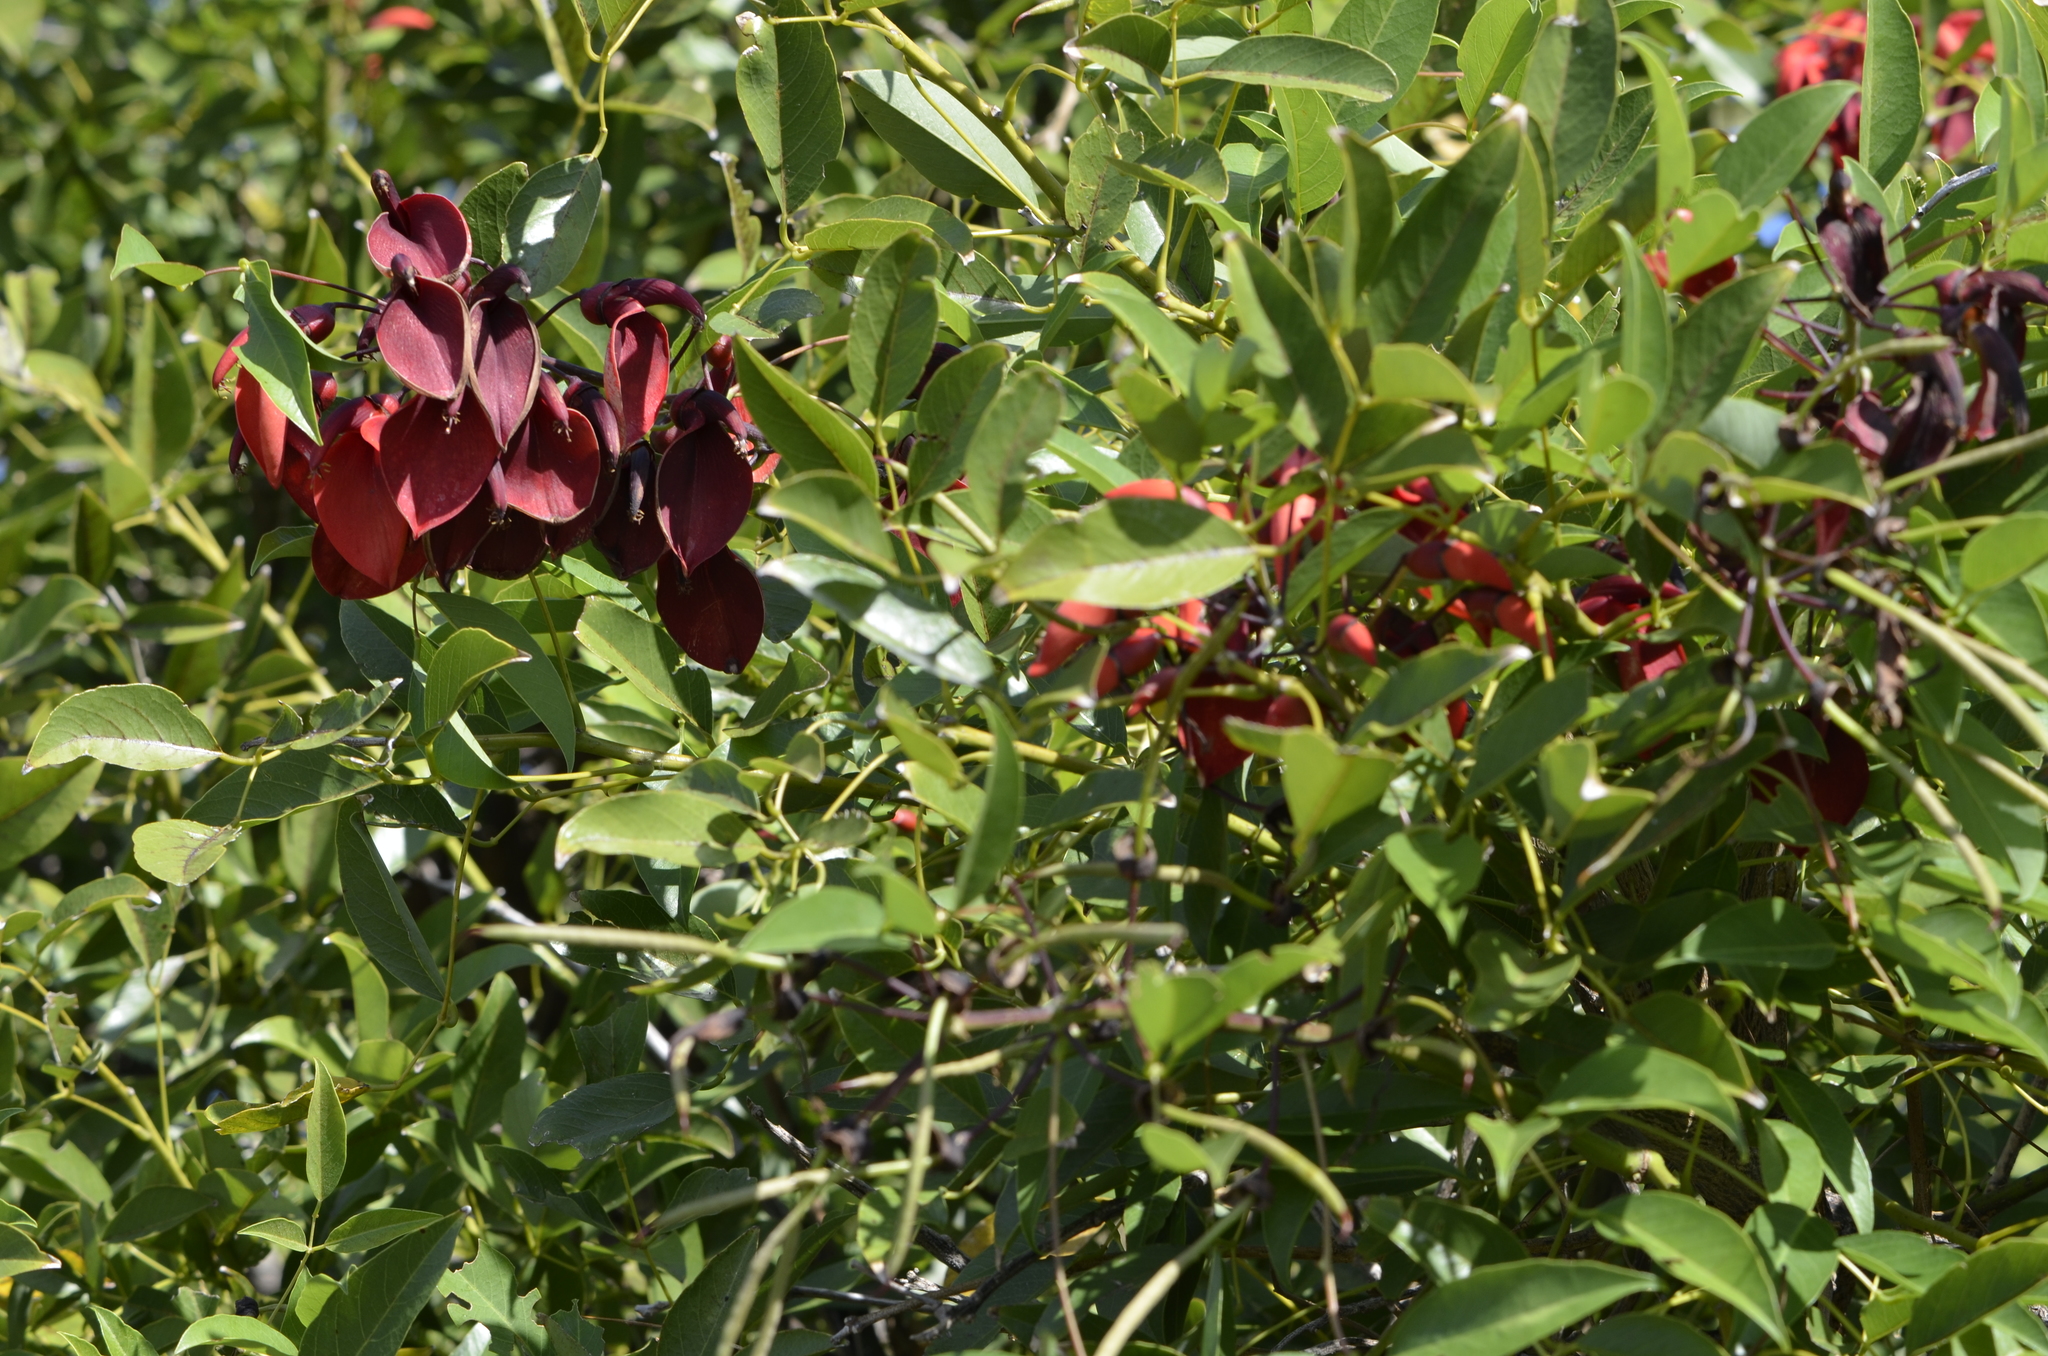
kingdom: Plantae
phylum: Tracheophyta
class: Magnoliopsida
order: Fabales
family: Fabaceae
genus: Erythrina
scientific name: Erythrina crista-galli
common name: Cockspur coral tree
